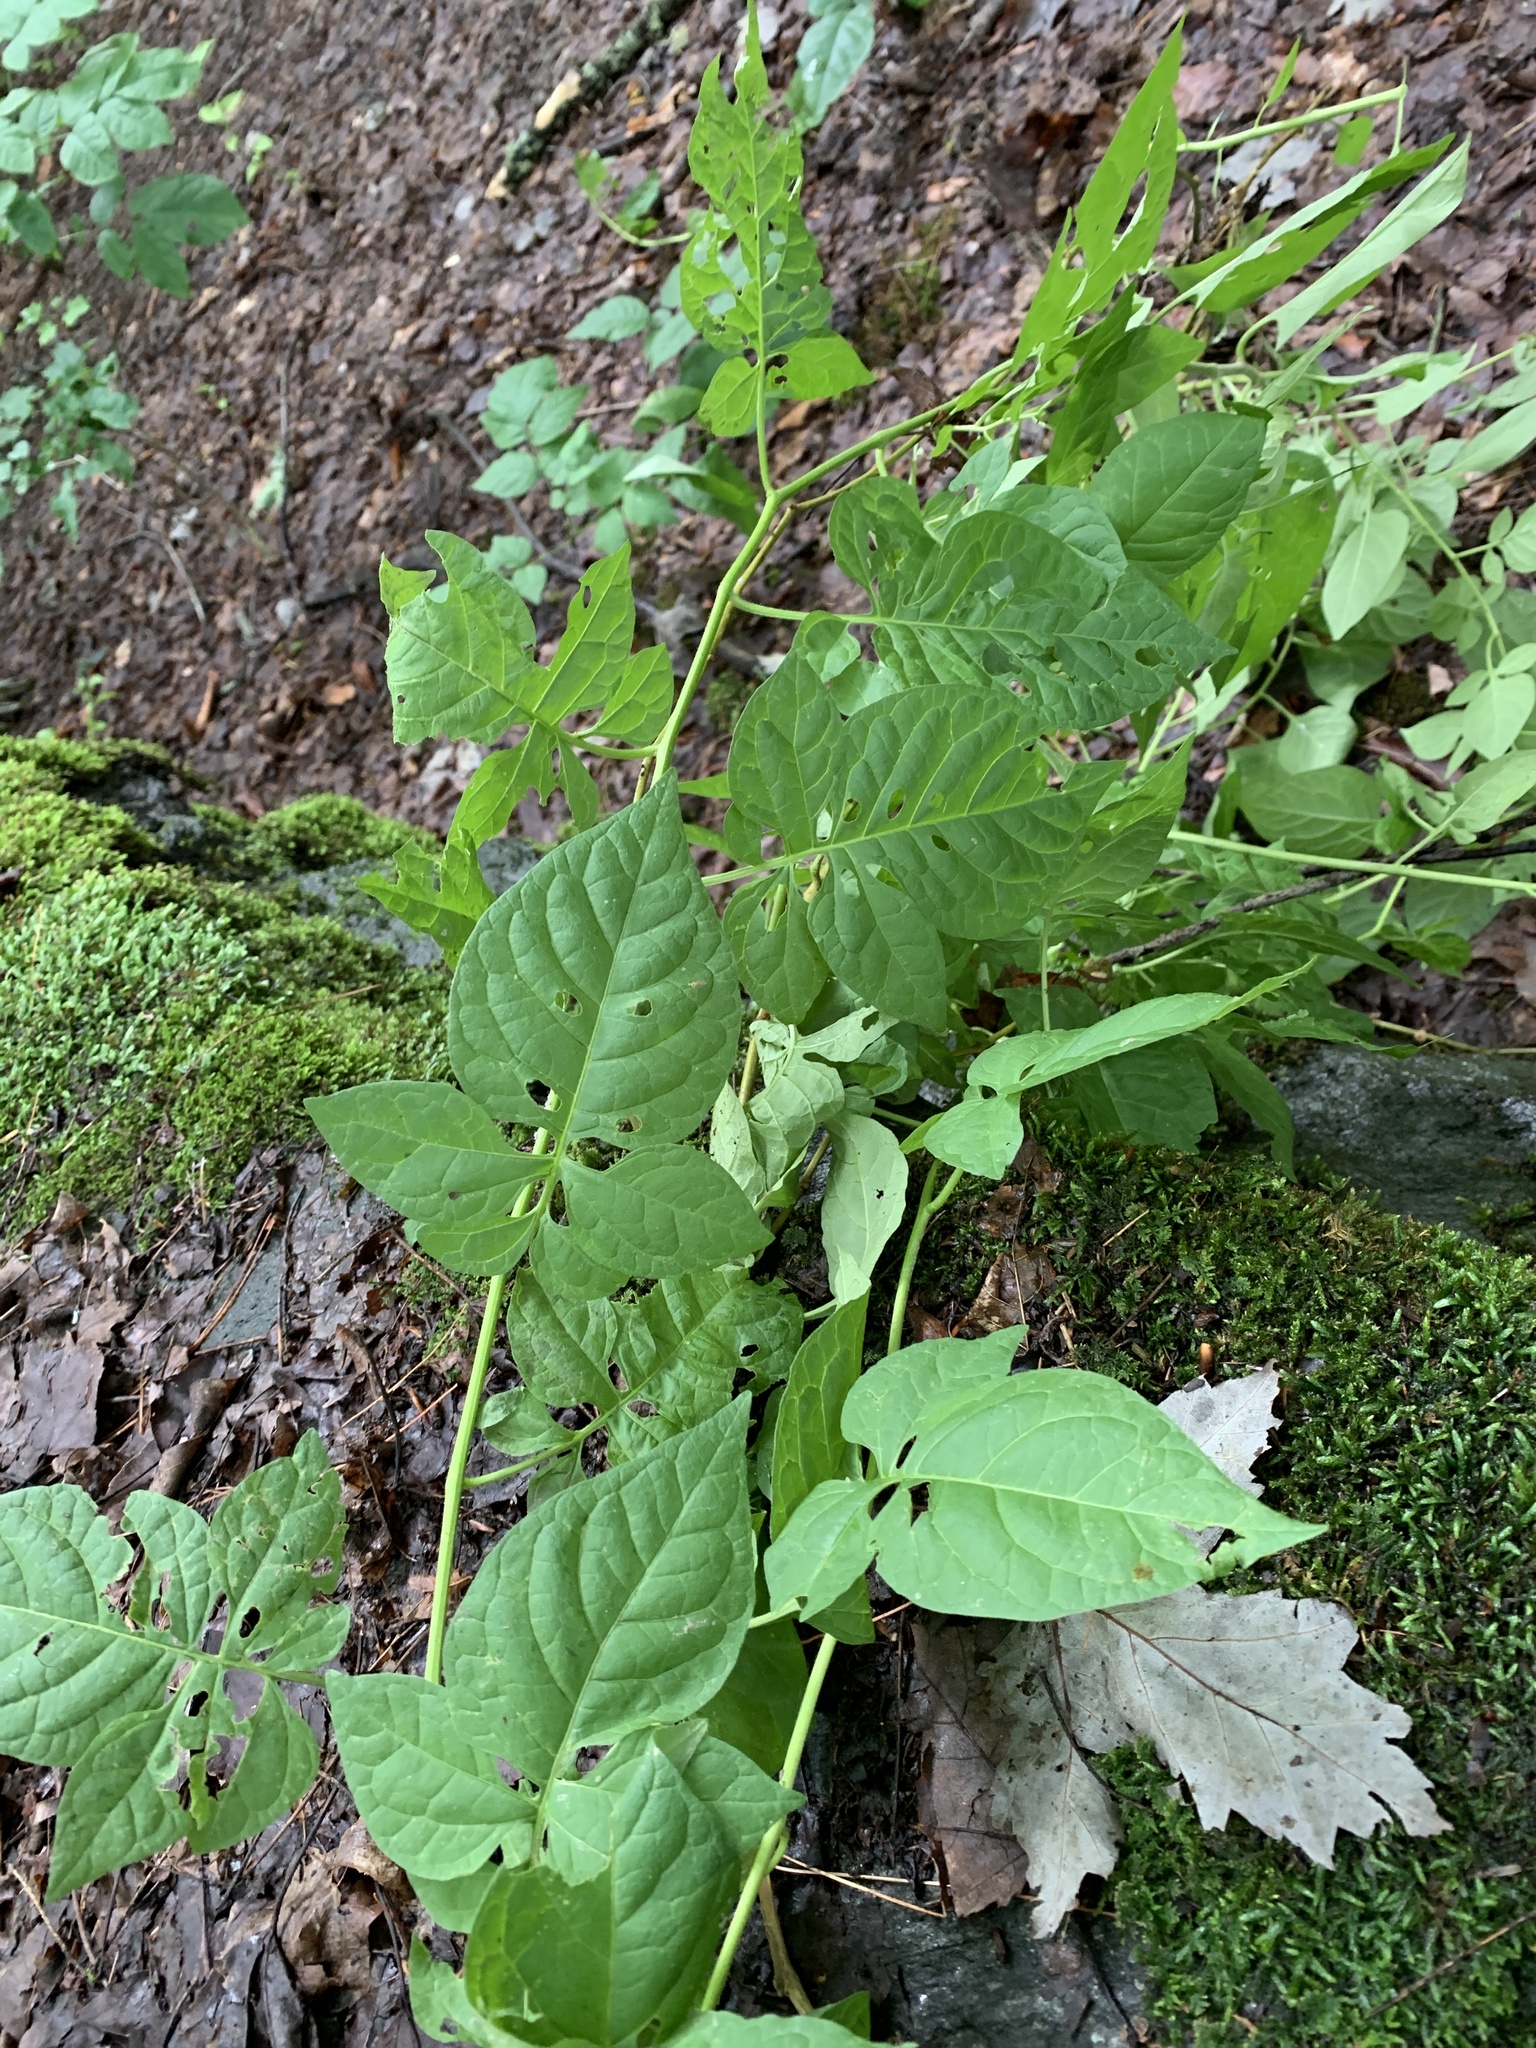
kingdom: Plantae
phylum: Tracheophyta
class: Magnoliopsida
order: Solanales
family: Solanaceae
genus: Solanum
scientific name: Solanum dulcamara
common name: Climbing nightshade
